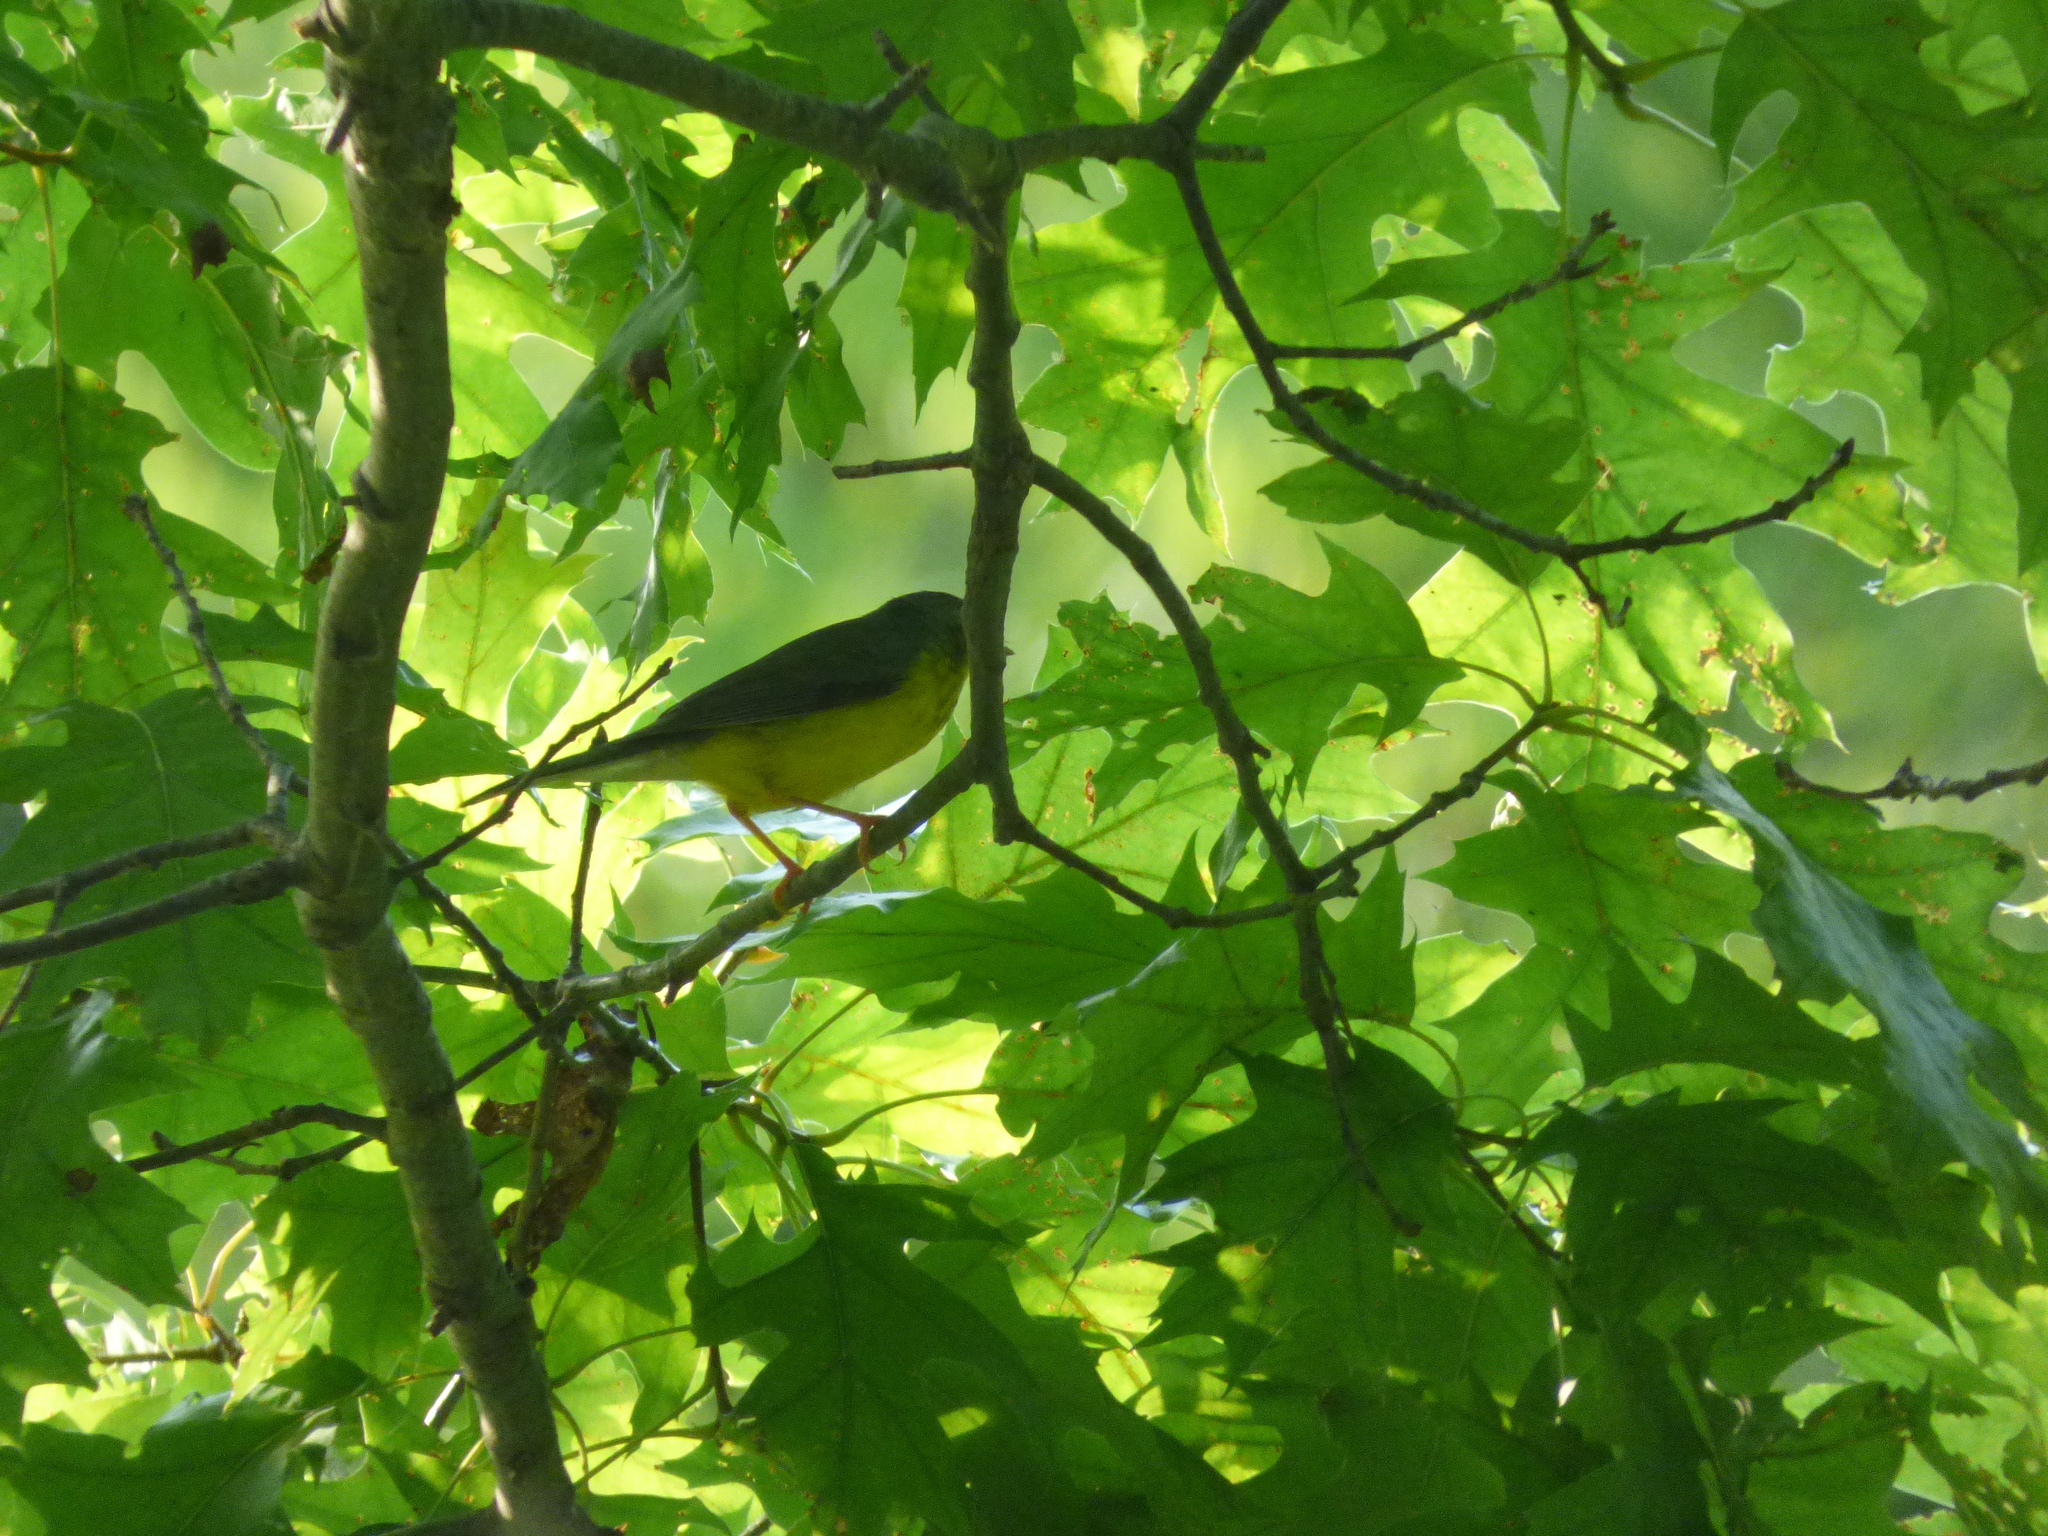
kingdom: Animalia
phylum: Chordata
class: Aves
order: Passeriformes
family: Parulidae
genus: Cardellina
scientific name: Cardellina canadensis
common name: Canada warbler
